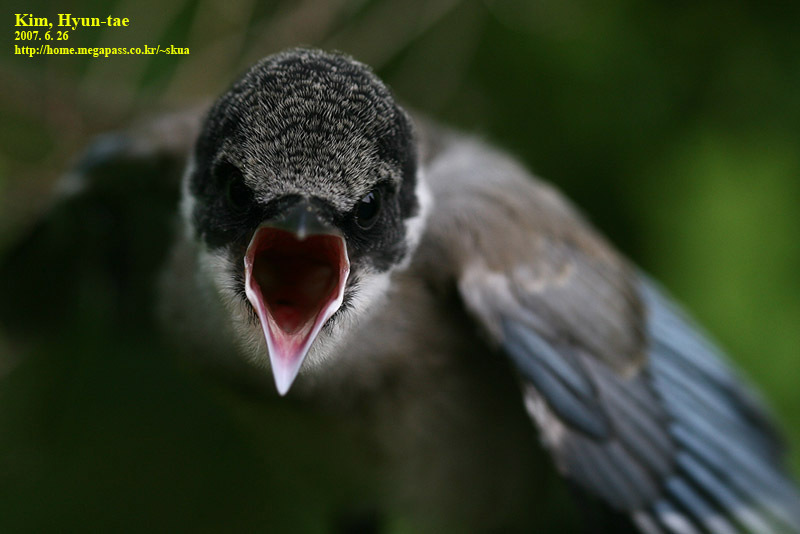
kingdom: Animalia
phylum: Chordata
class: Aves
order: Passeriformes
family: Corvidae
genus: Cyanopica
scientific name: Cyanopica cyanus
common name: Azure-winged magpie
